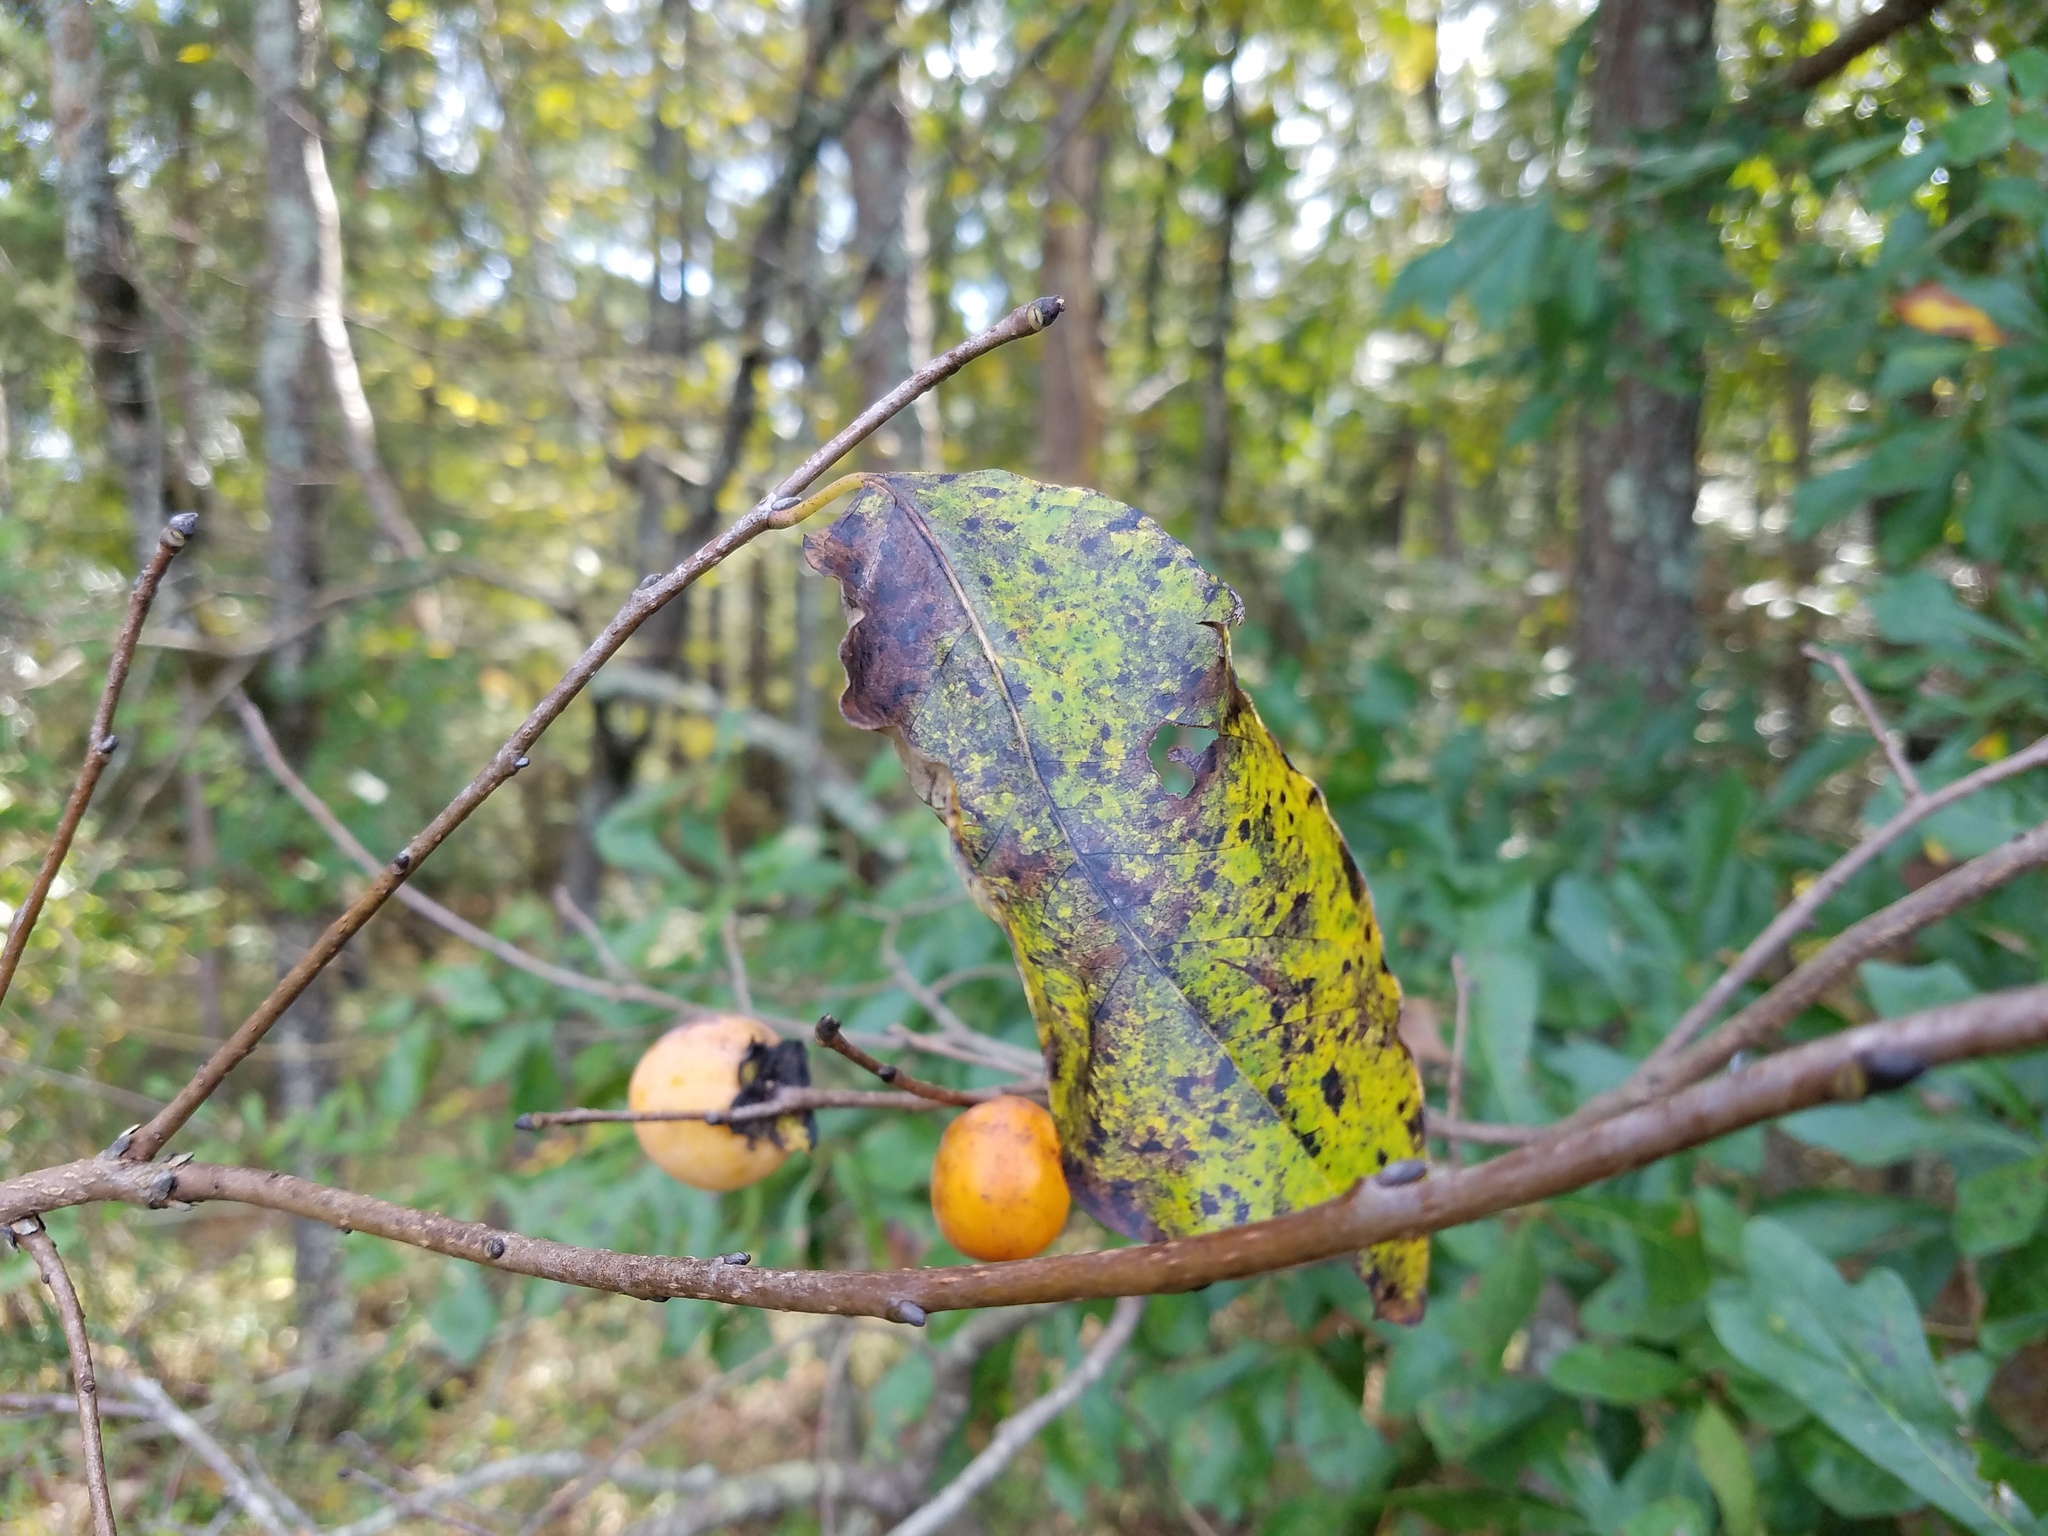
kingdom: Plantae
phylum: Tracheophyta
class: Magnoliopsida
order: Ericales
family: Ebenaceae
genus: Diospyros
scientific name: Diospyros virginiana
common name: Persimmon
